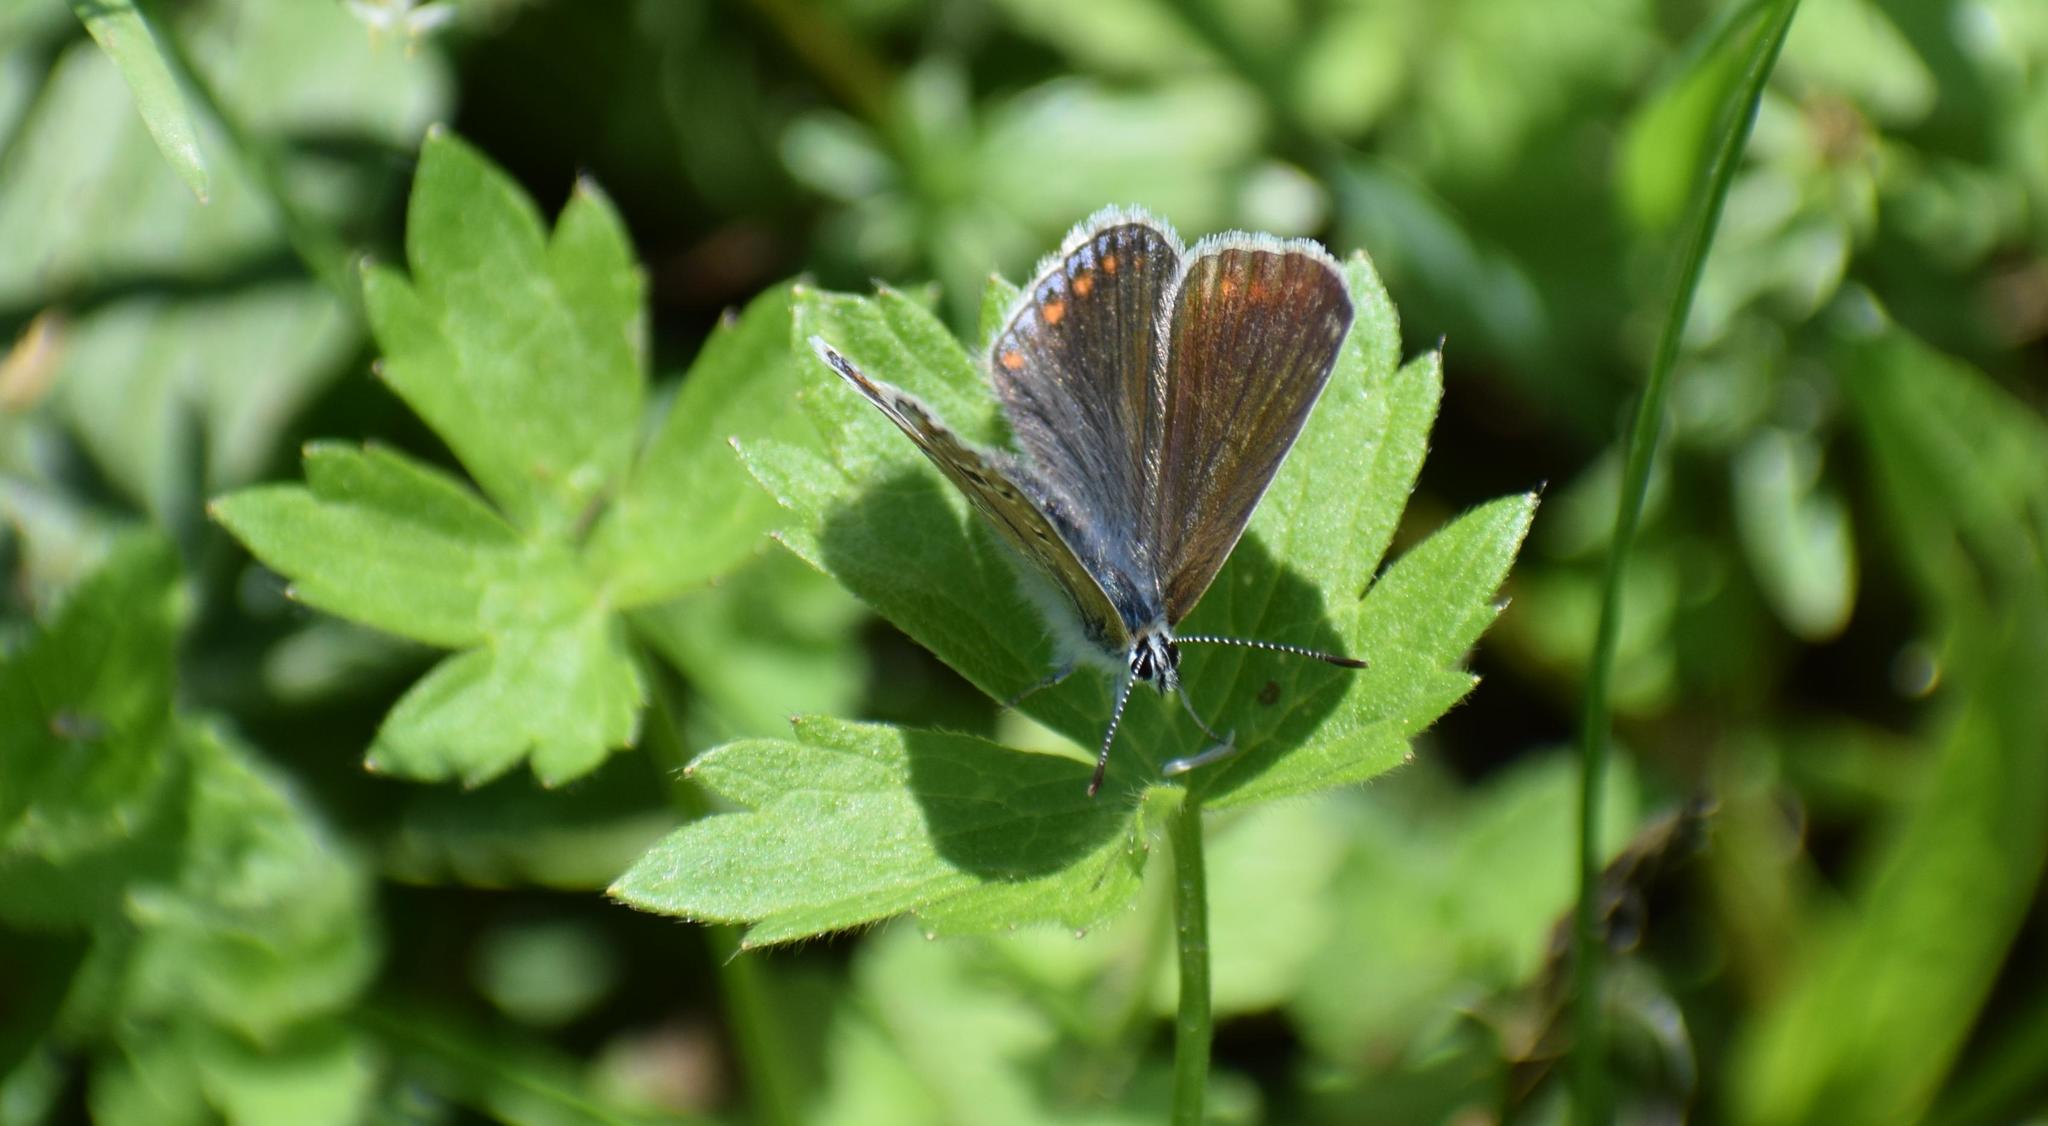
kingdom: Animalia
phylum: Arthropoda
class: Insecta
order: Lepidoptera
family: Lycaenidae
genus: Polyommatus
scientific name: Polyommatus icarus
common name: Common blue
